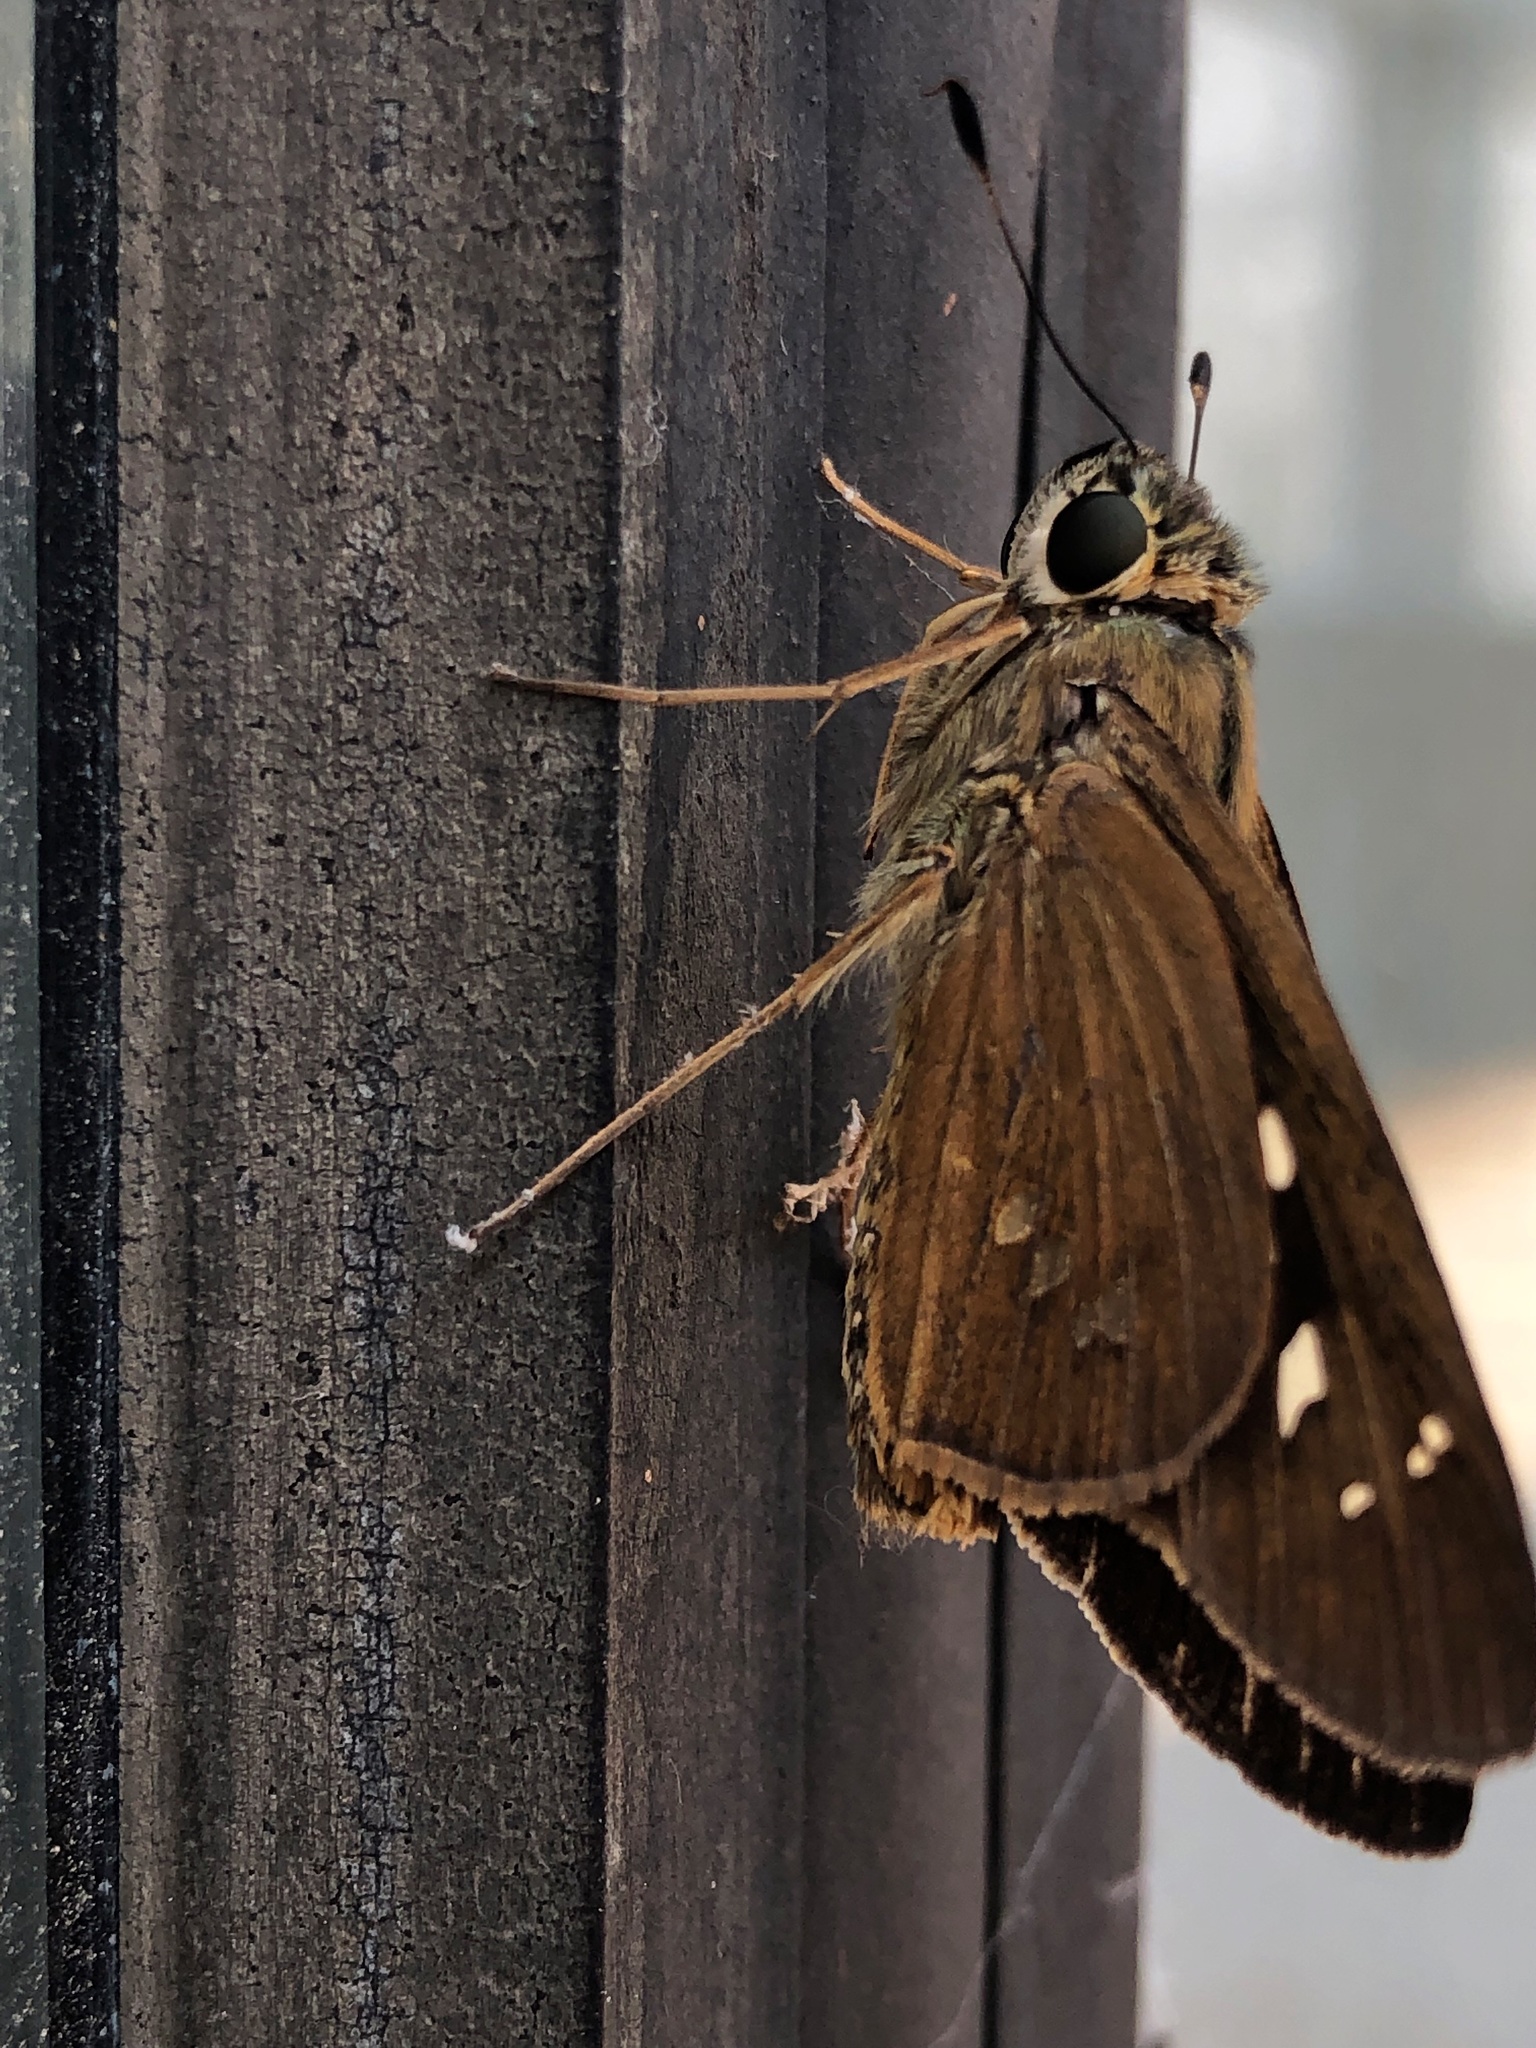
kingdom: Animalia
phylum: Arthropoda
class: Insecta
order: Lepidoptera
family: Hesperiidae
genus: Calpodes
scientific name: Calpodes ethlius
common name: Brazilian skipper
